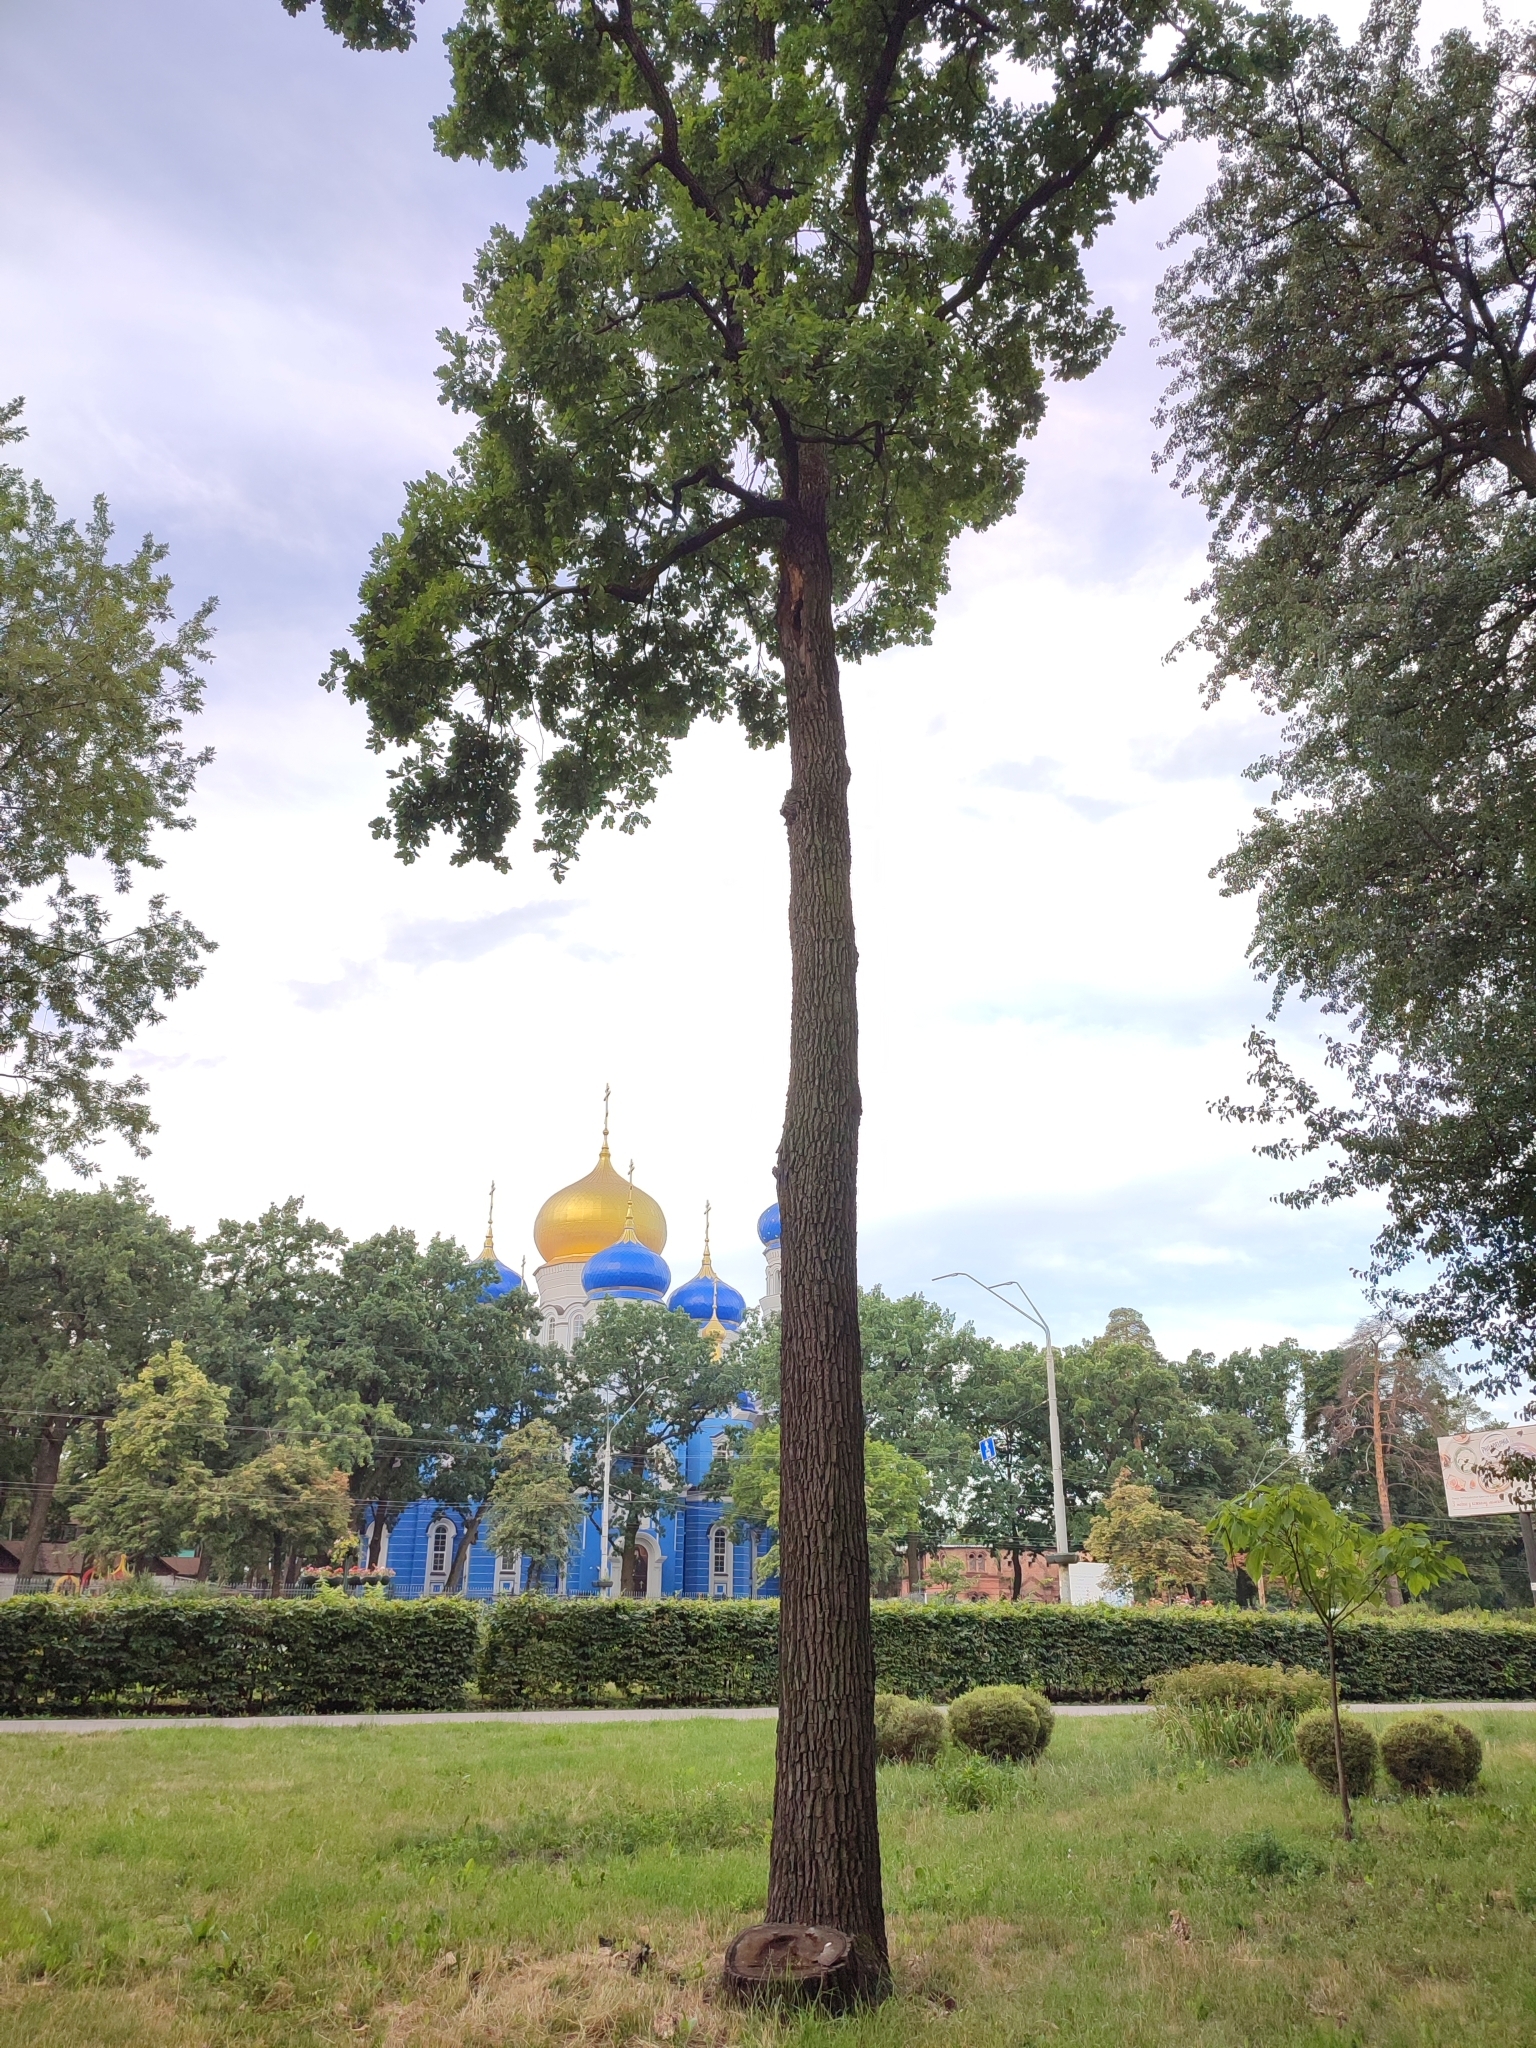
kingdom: Plantae
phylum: Tracheophyta
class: Magnoliopsida
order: Fagales
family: Fagaceae
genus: Quercus
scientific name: Quercus robur
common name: Pedunculate oak
